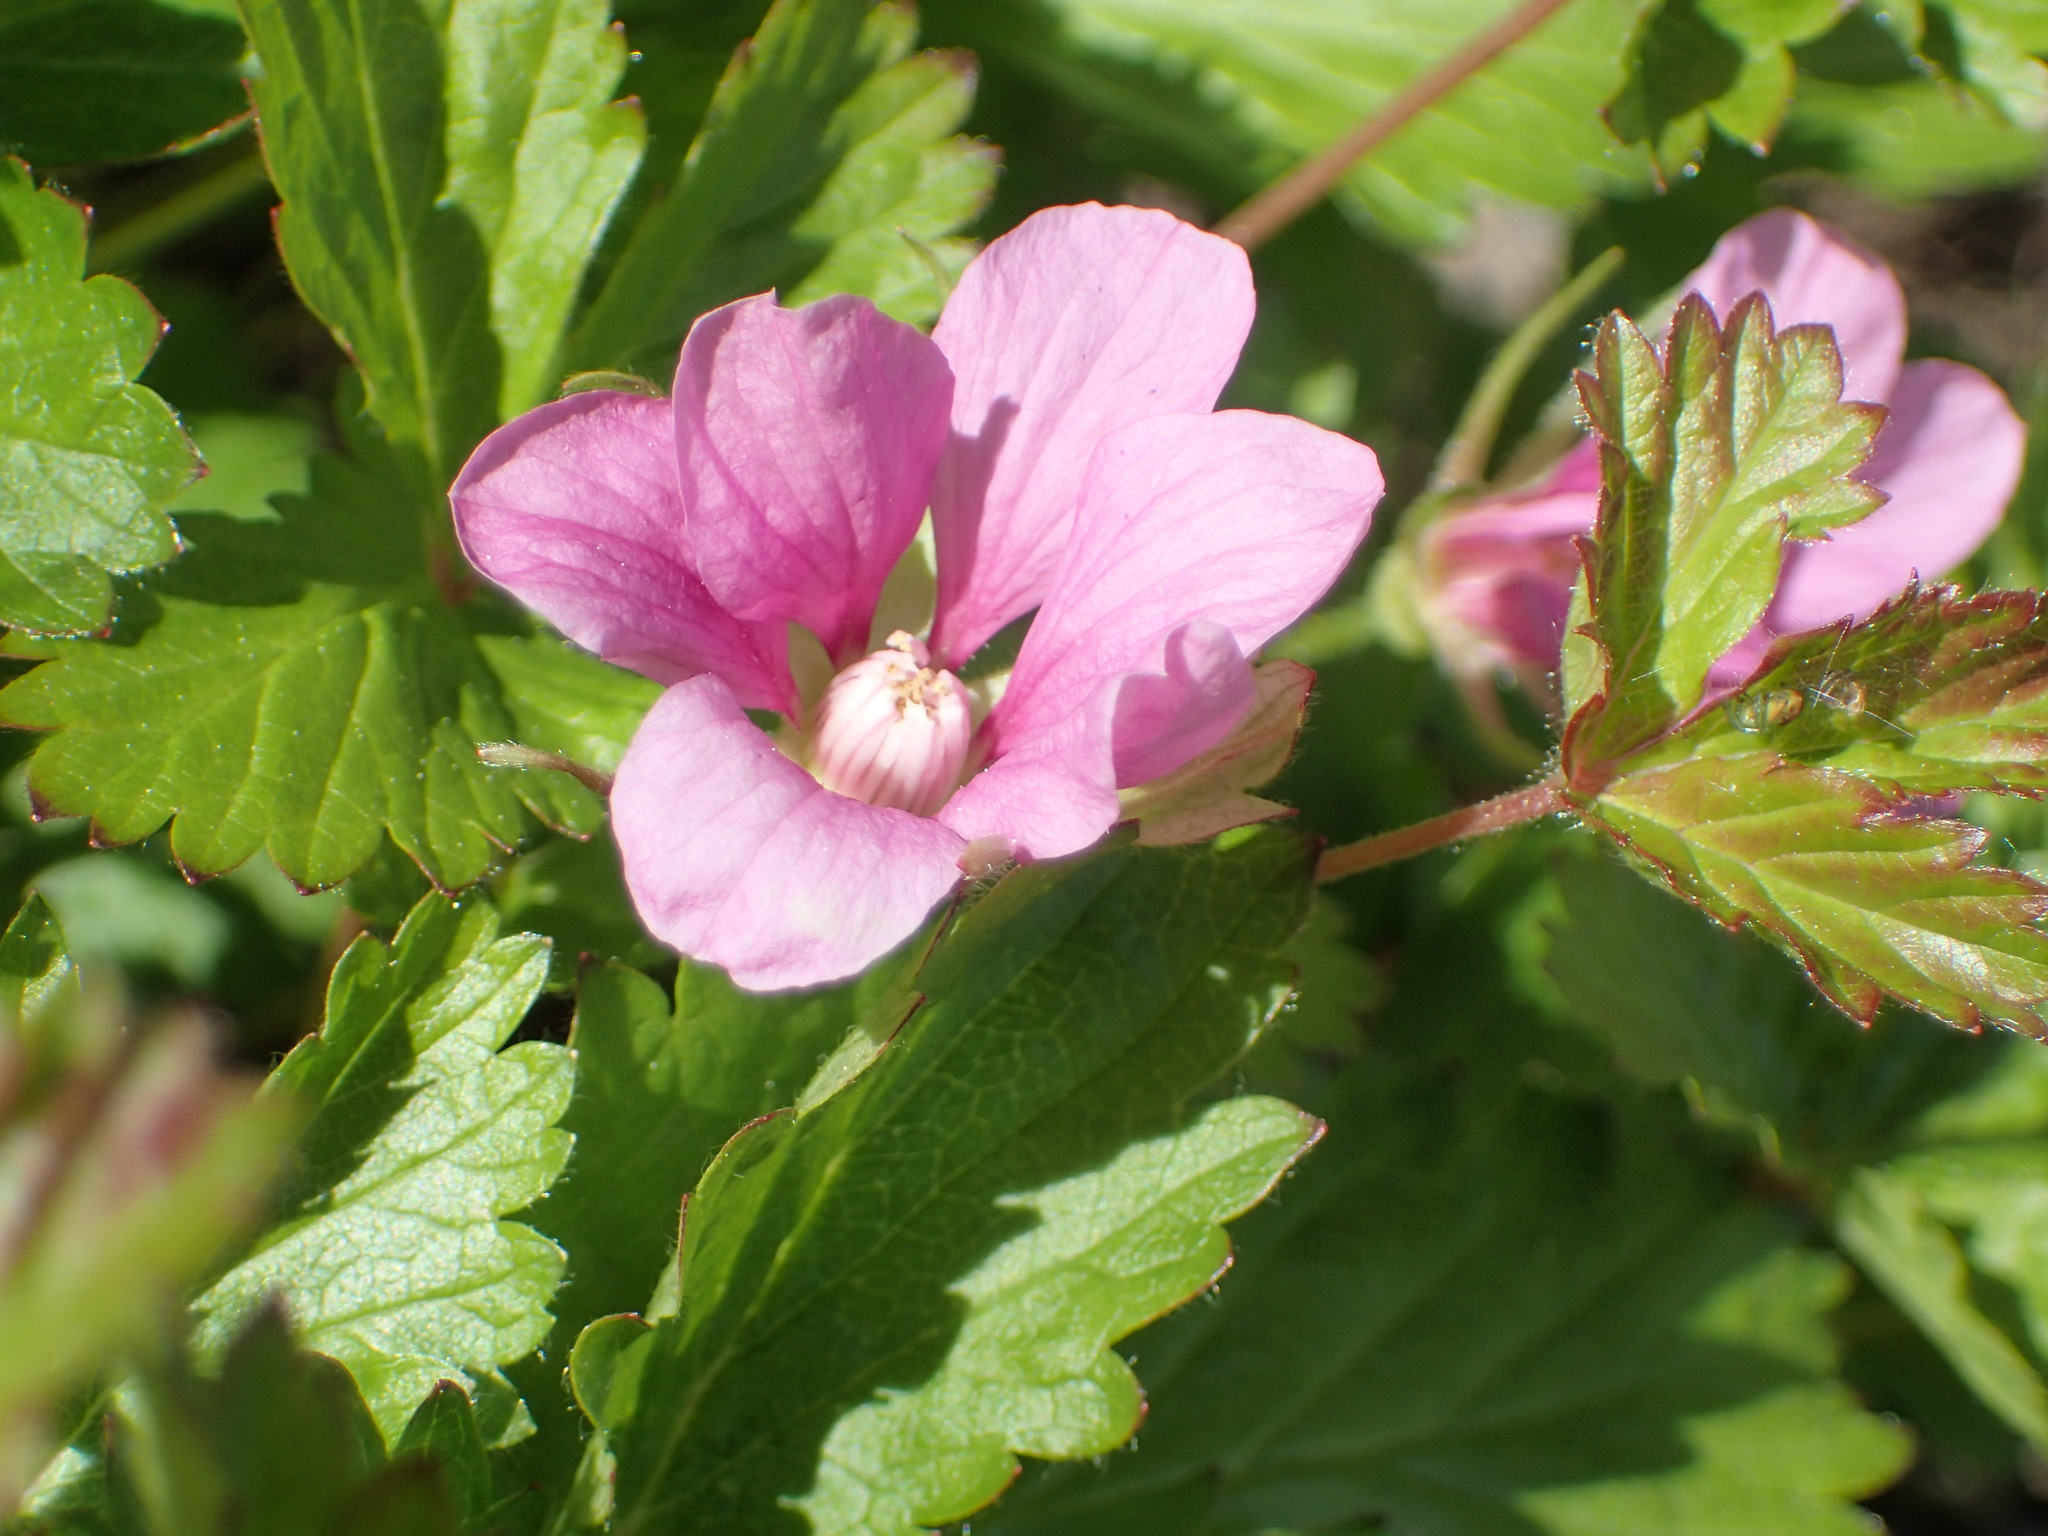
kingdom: Plantae
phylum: Tracheophyta
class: Magnoliopsida
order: Rosales
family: Rosaceae
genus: Rubus
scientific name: Rubus arcticus
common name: Arctic bramble
